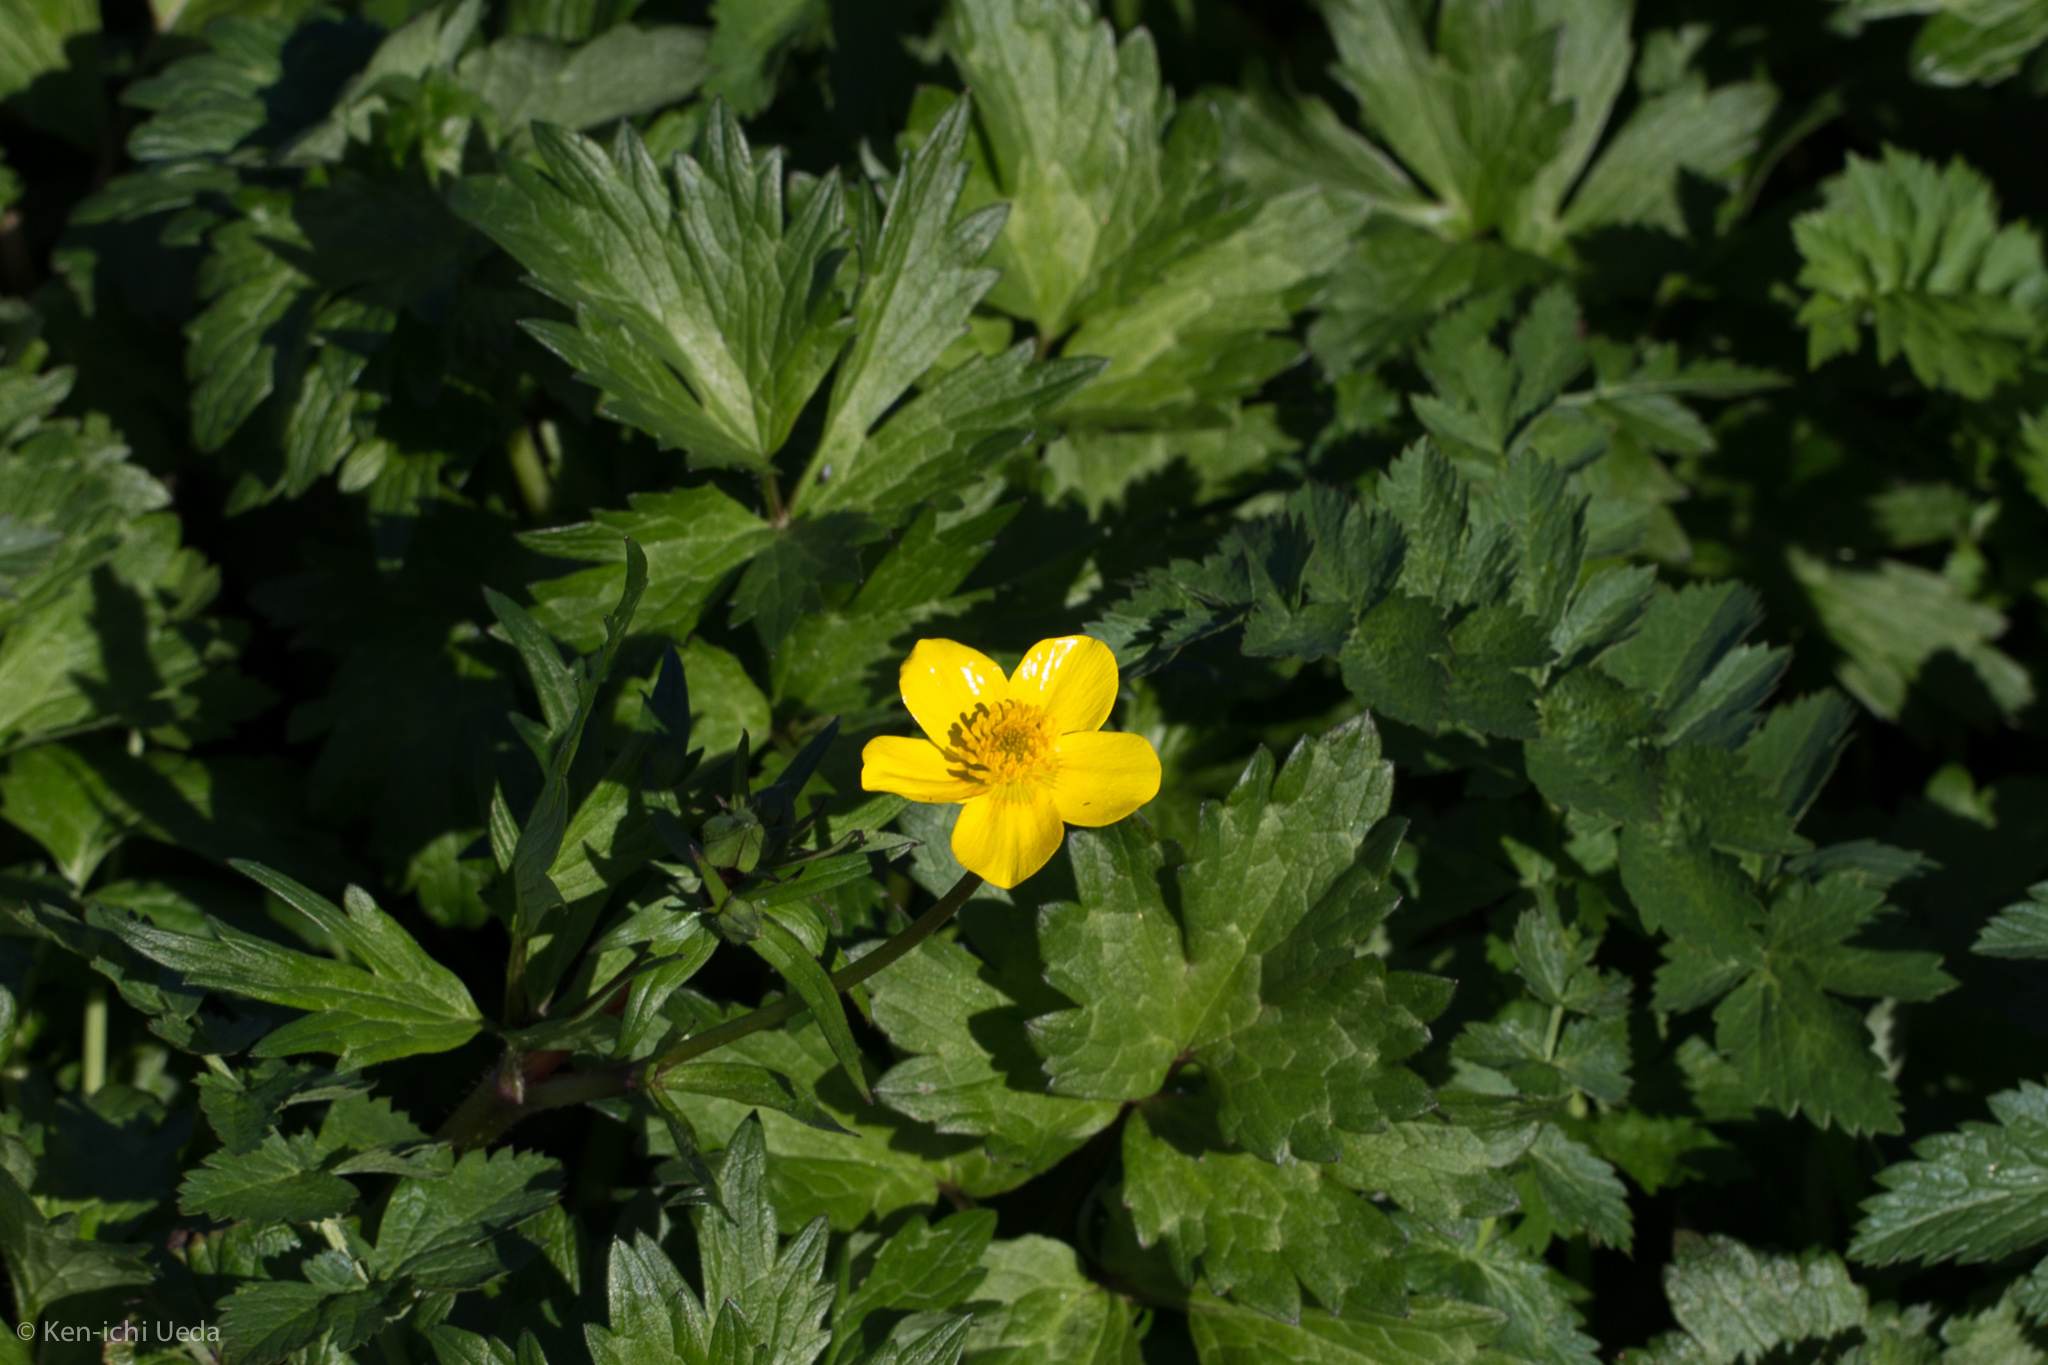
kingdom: Plantae
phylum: Tracheophyta
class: Magnoliopsida
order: Ranunculales
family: Ranunculaceae
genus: Ranunculus
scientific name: Ranunculus orthorhynchus
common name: Straight-beak buttercup
